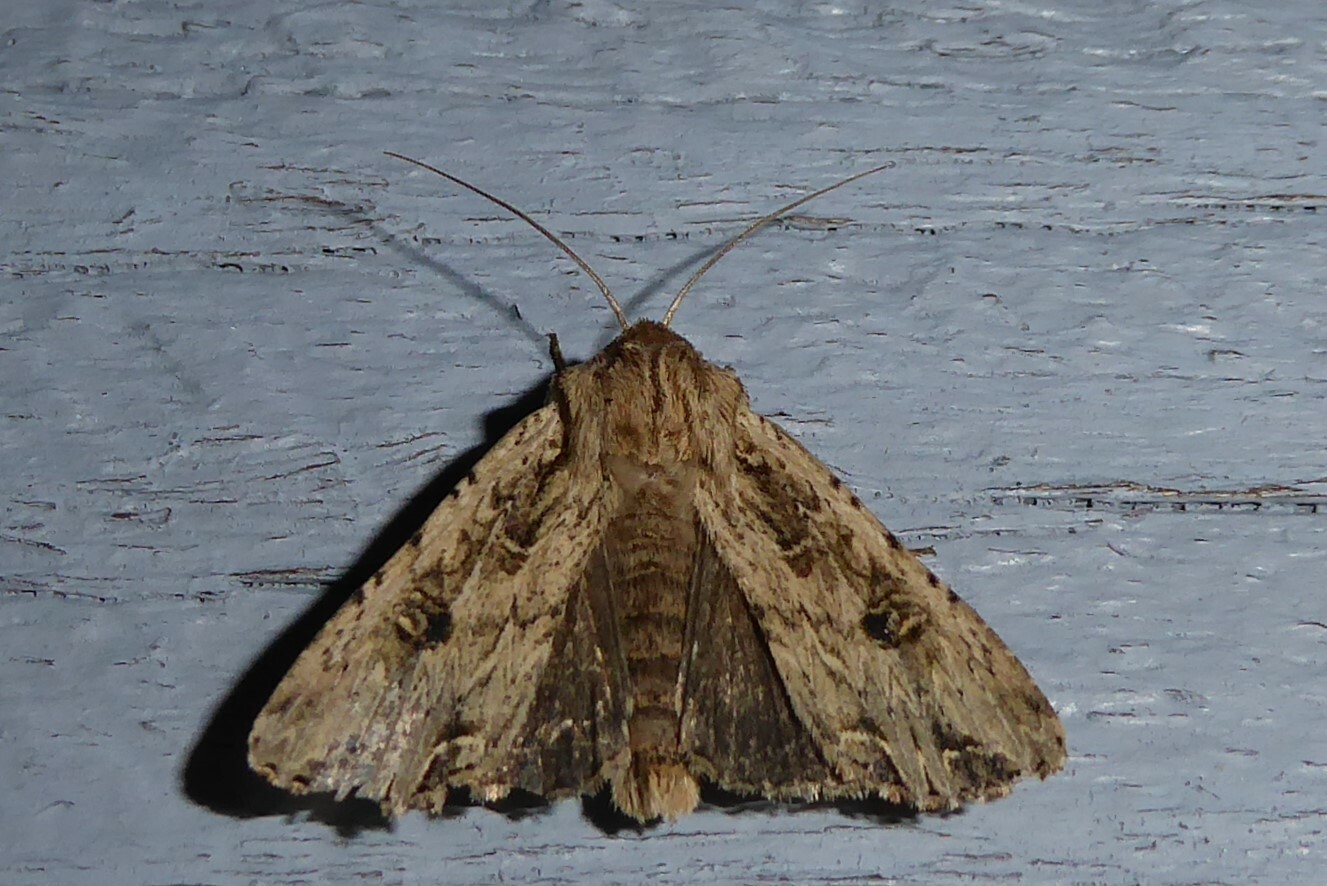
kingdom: Animalia
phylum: Arthropoda
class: Insecta
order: Lepidoptera
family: Noctuidae
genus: Ichneutica
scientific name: Ichneutica lignana
